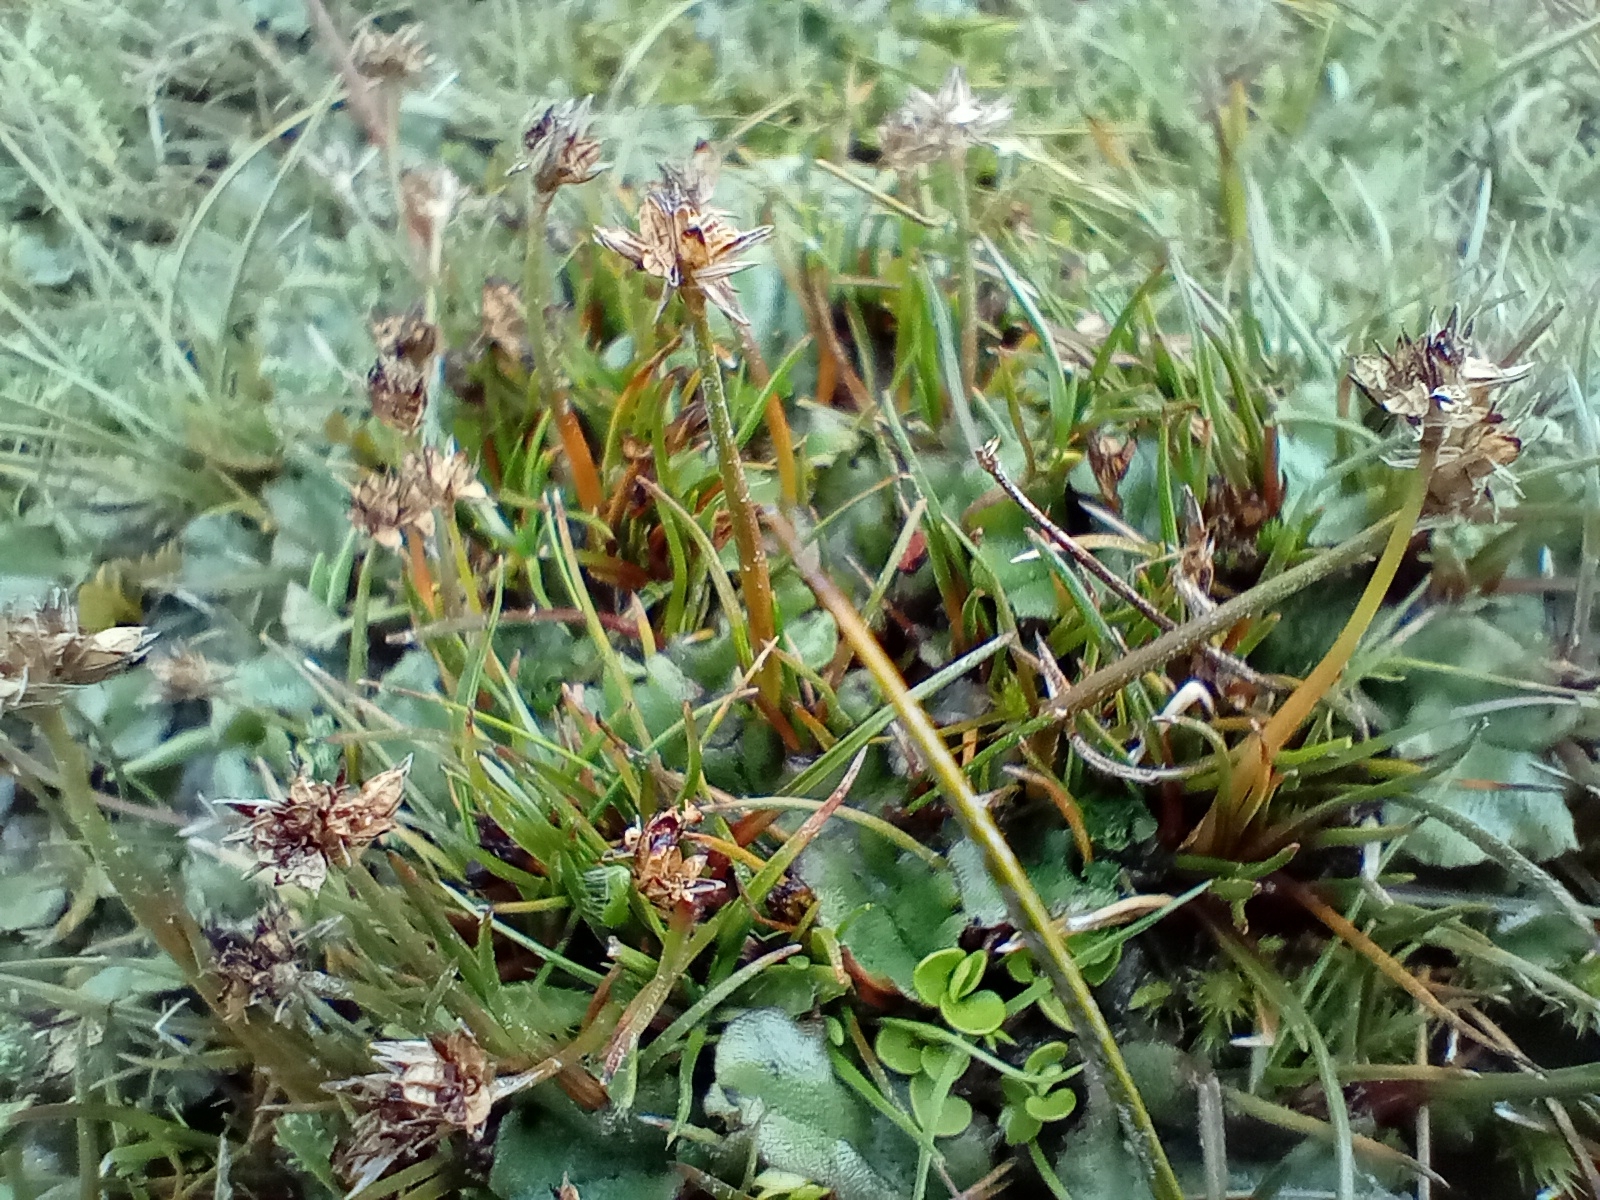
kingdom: Plantae
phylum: Tracheophyta
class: Liliopsida
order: Poales
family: Juncaceae
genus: Luzula
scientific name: Luzula leptophylla
